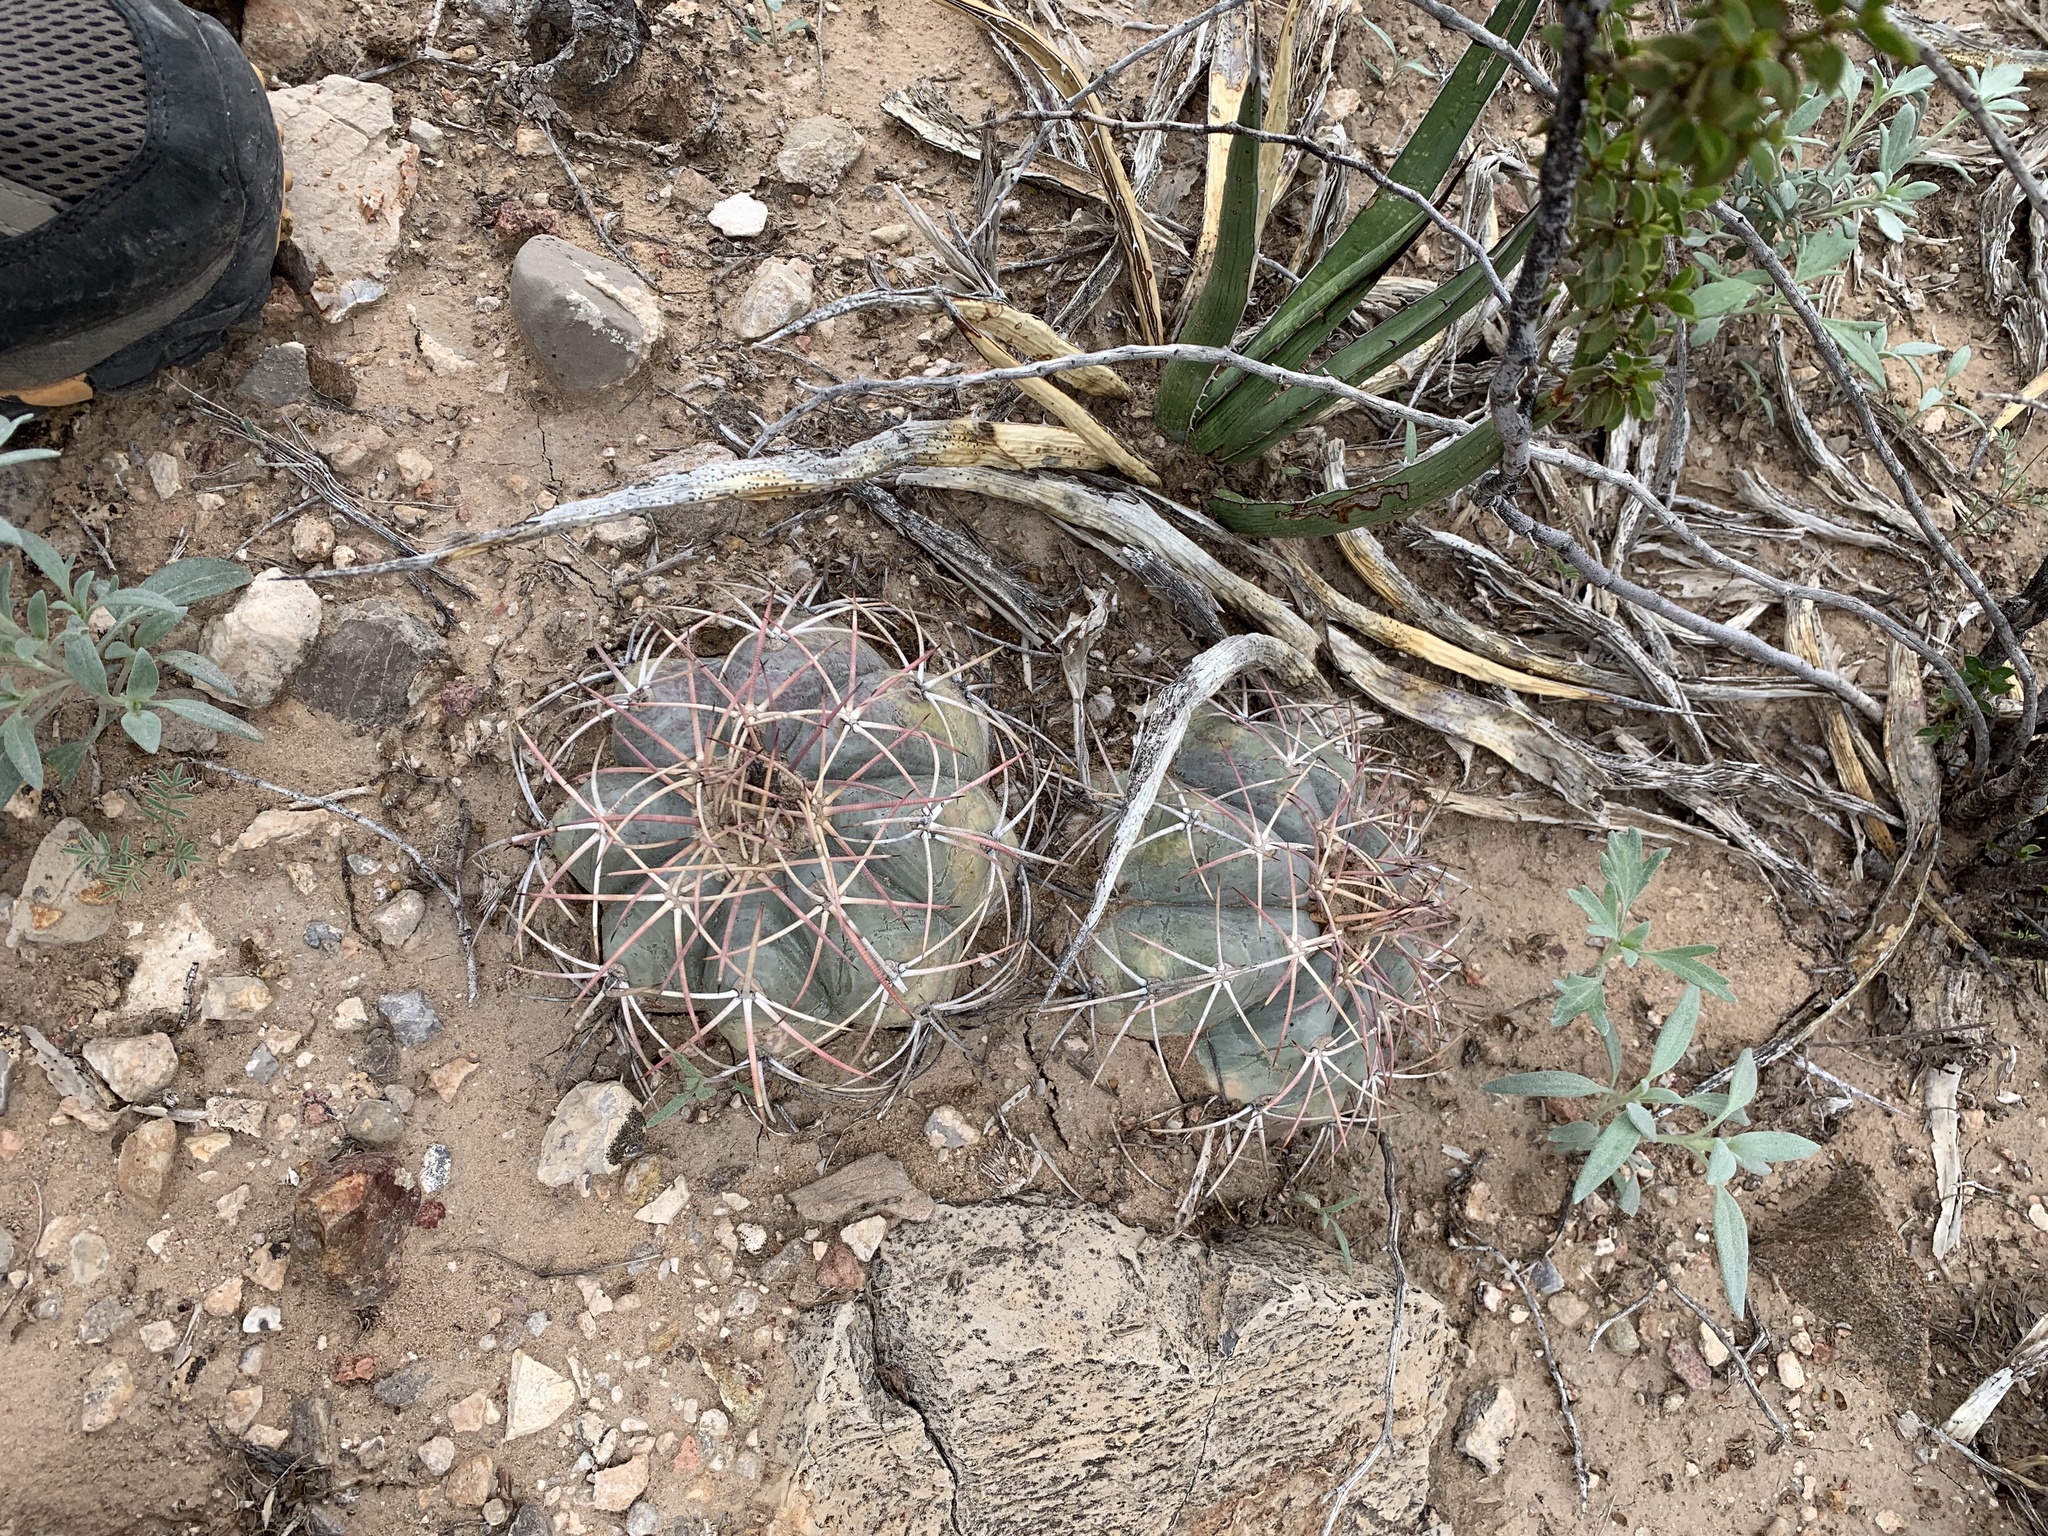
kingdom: Plantae
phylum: Tracheophyta
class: Magnoliopsida
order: Caryophyllales
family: Cactaceae
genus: Echinocactus
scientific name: Echinocactus horizonthalonius
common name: Devilshead
